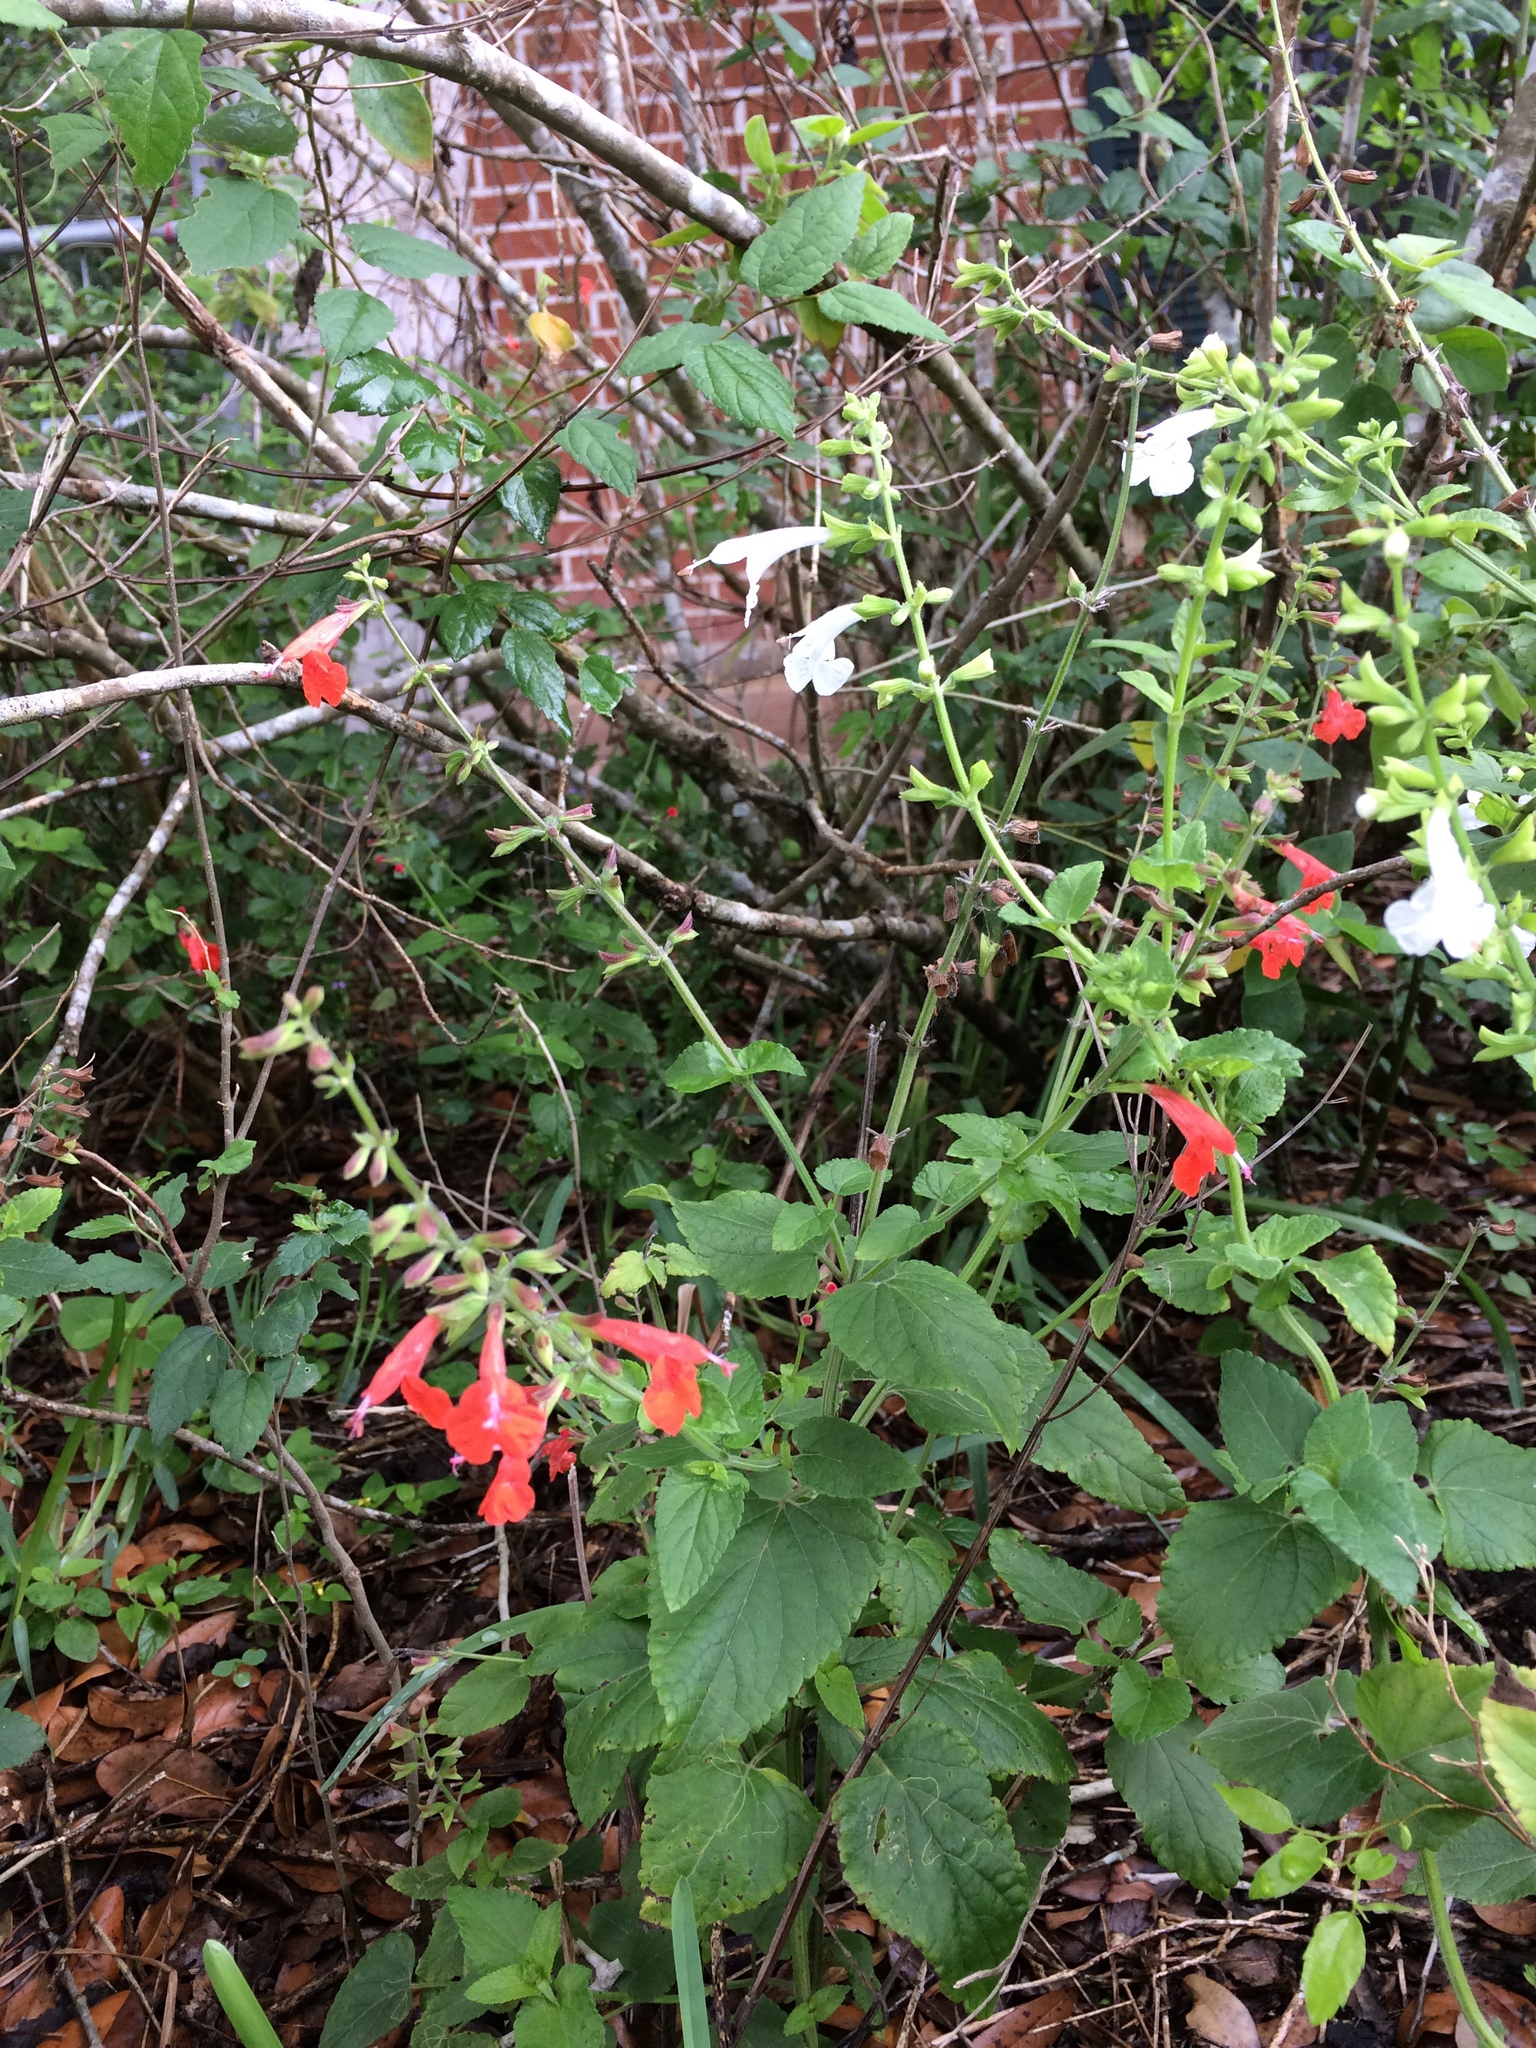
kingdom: Plantae
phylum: Tracheophyta
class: Magnoliopsida
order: Lamiales
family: Lamiaceae
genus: Salvia
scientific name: Salvia coccinea
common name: Blood sage
